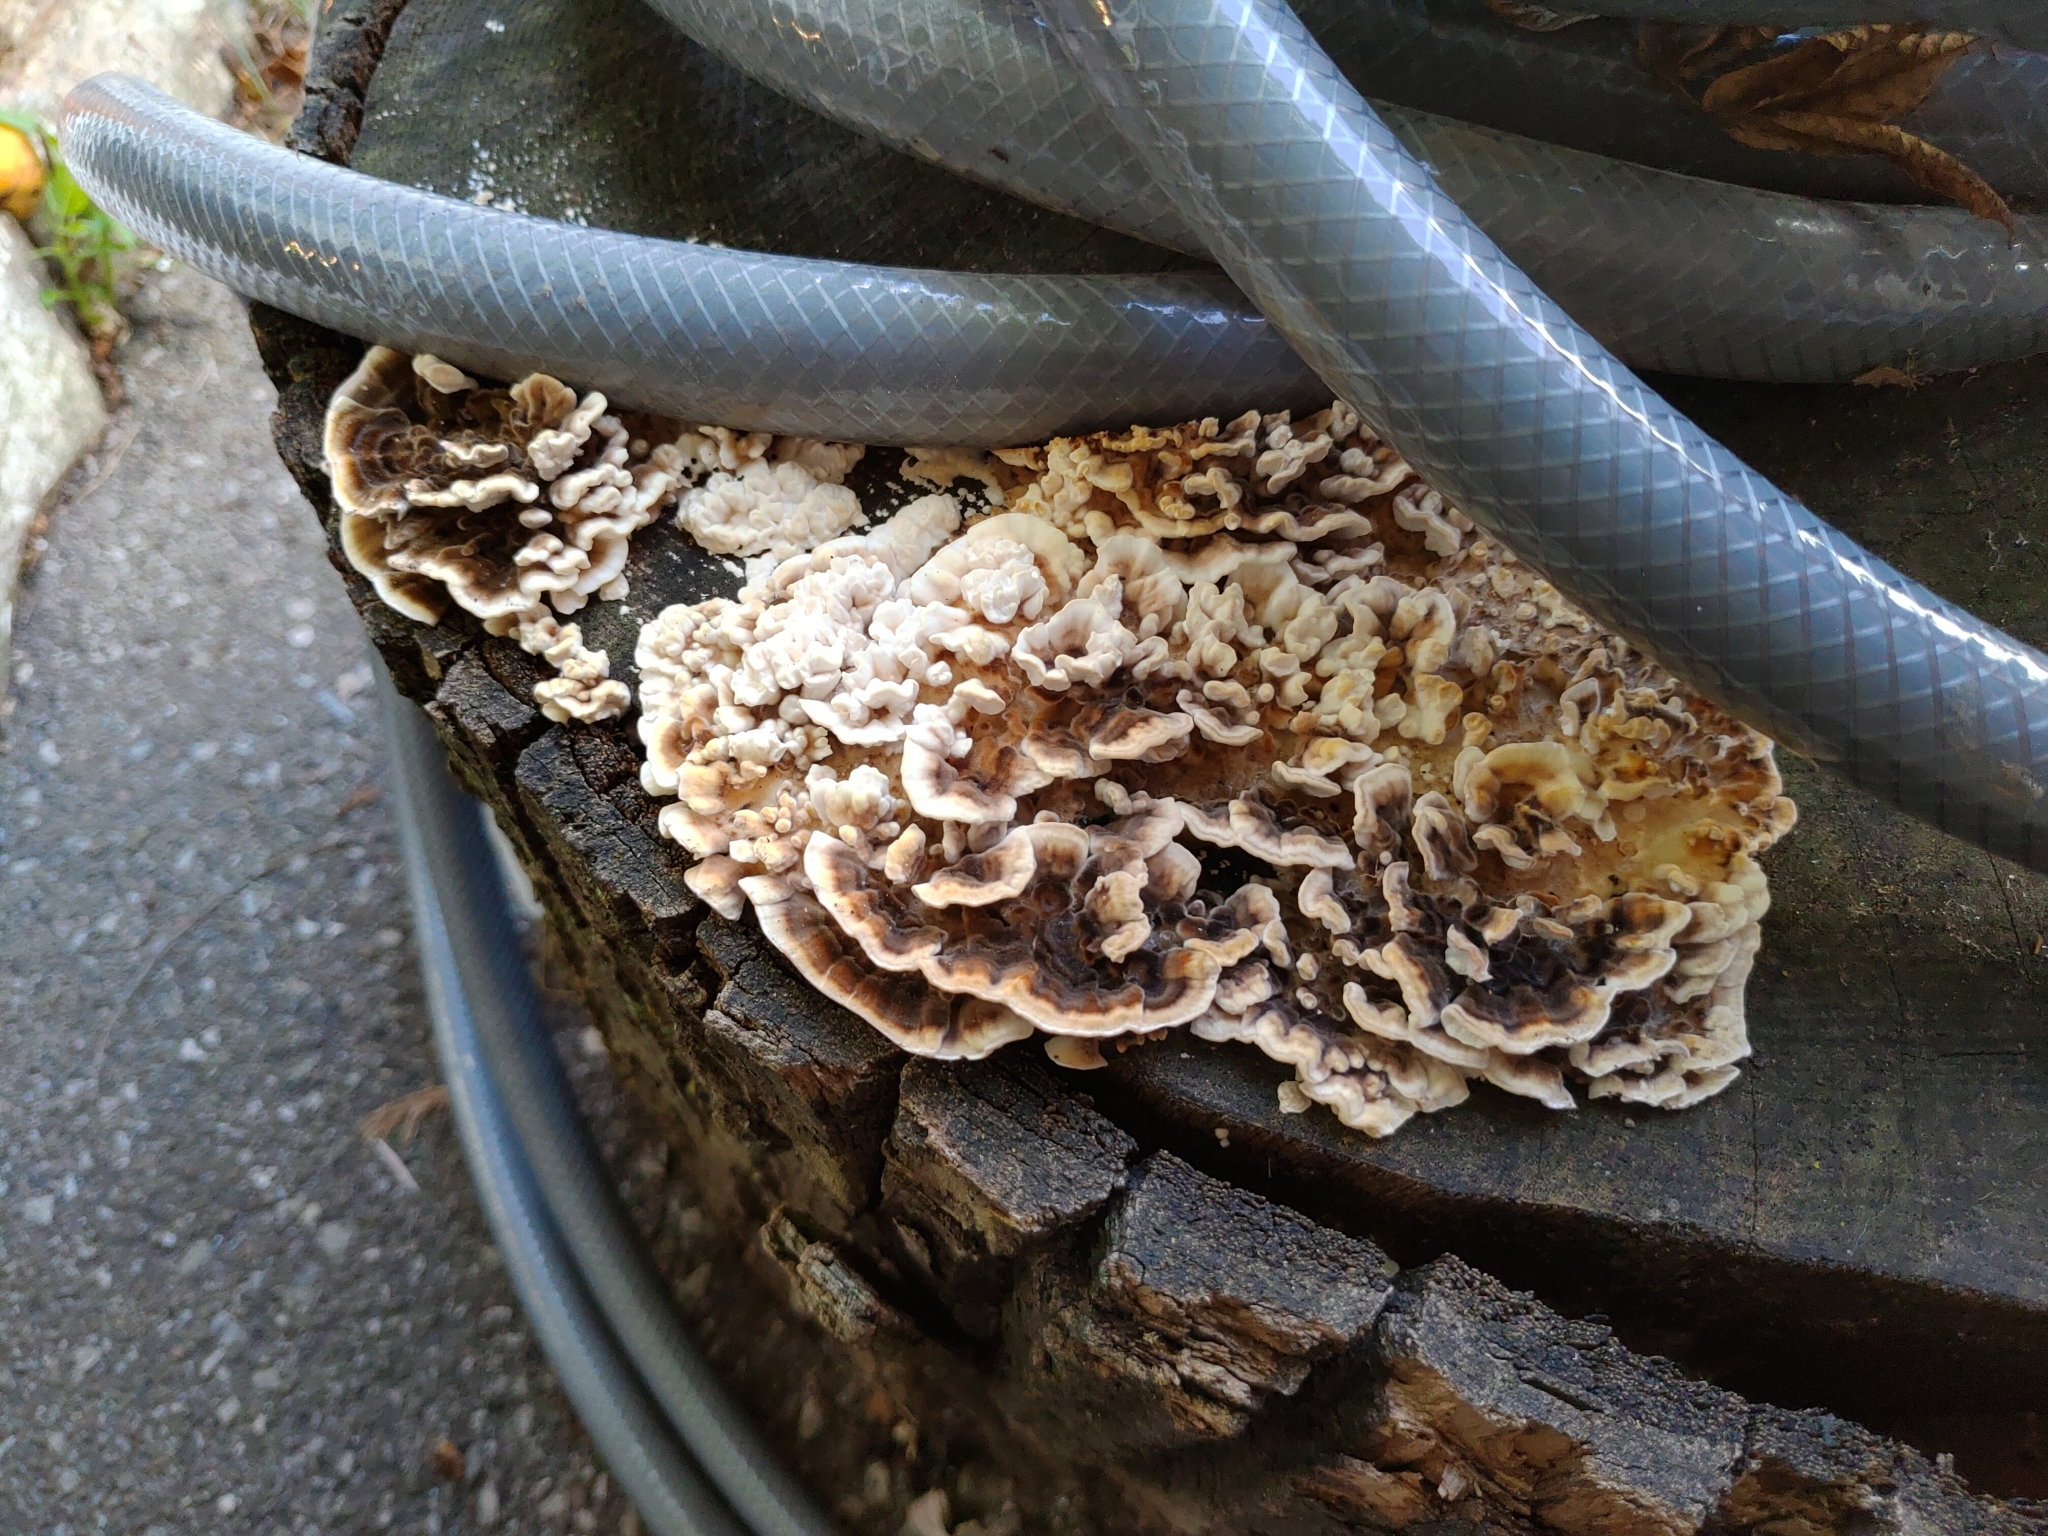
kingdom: Fungi
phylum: Basidiomycota
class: Agaricomycetes
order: Polyporales
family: Polyporaceae
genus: Trametes
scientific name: Trametes versicolor
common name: Turkeytail
